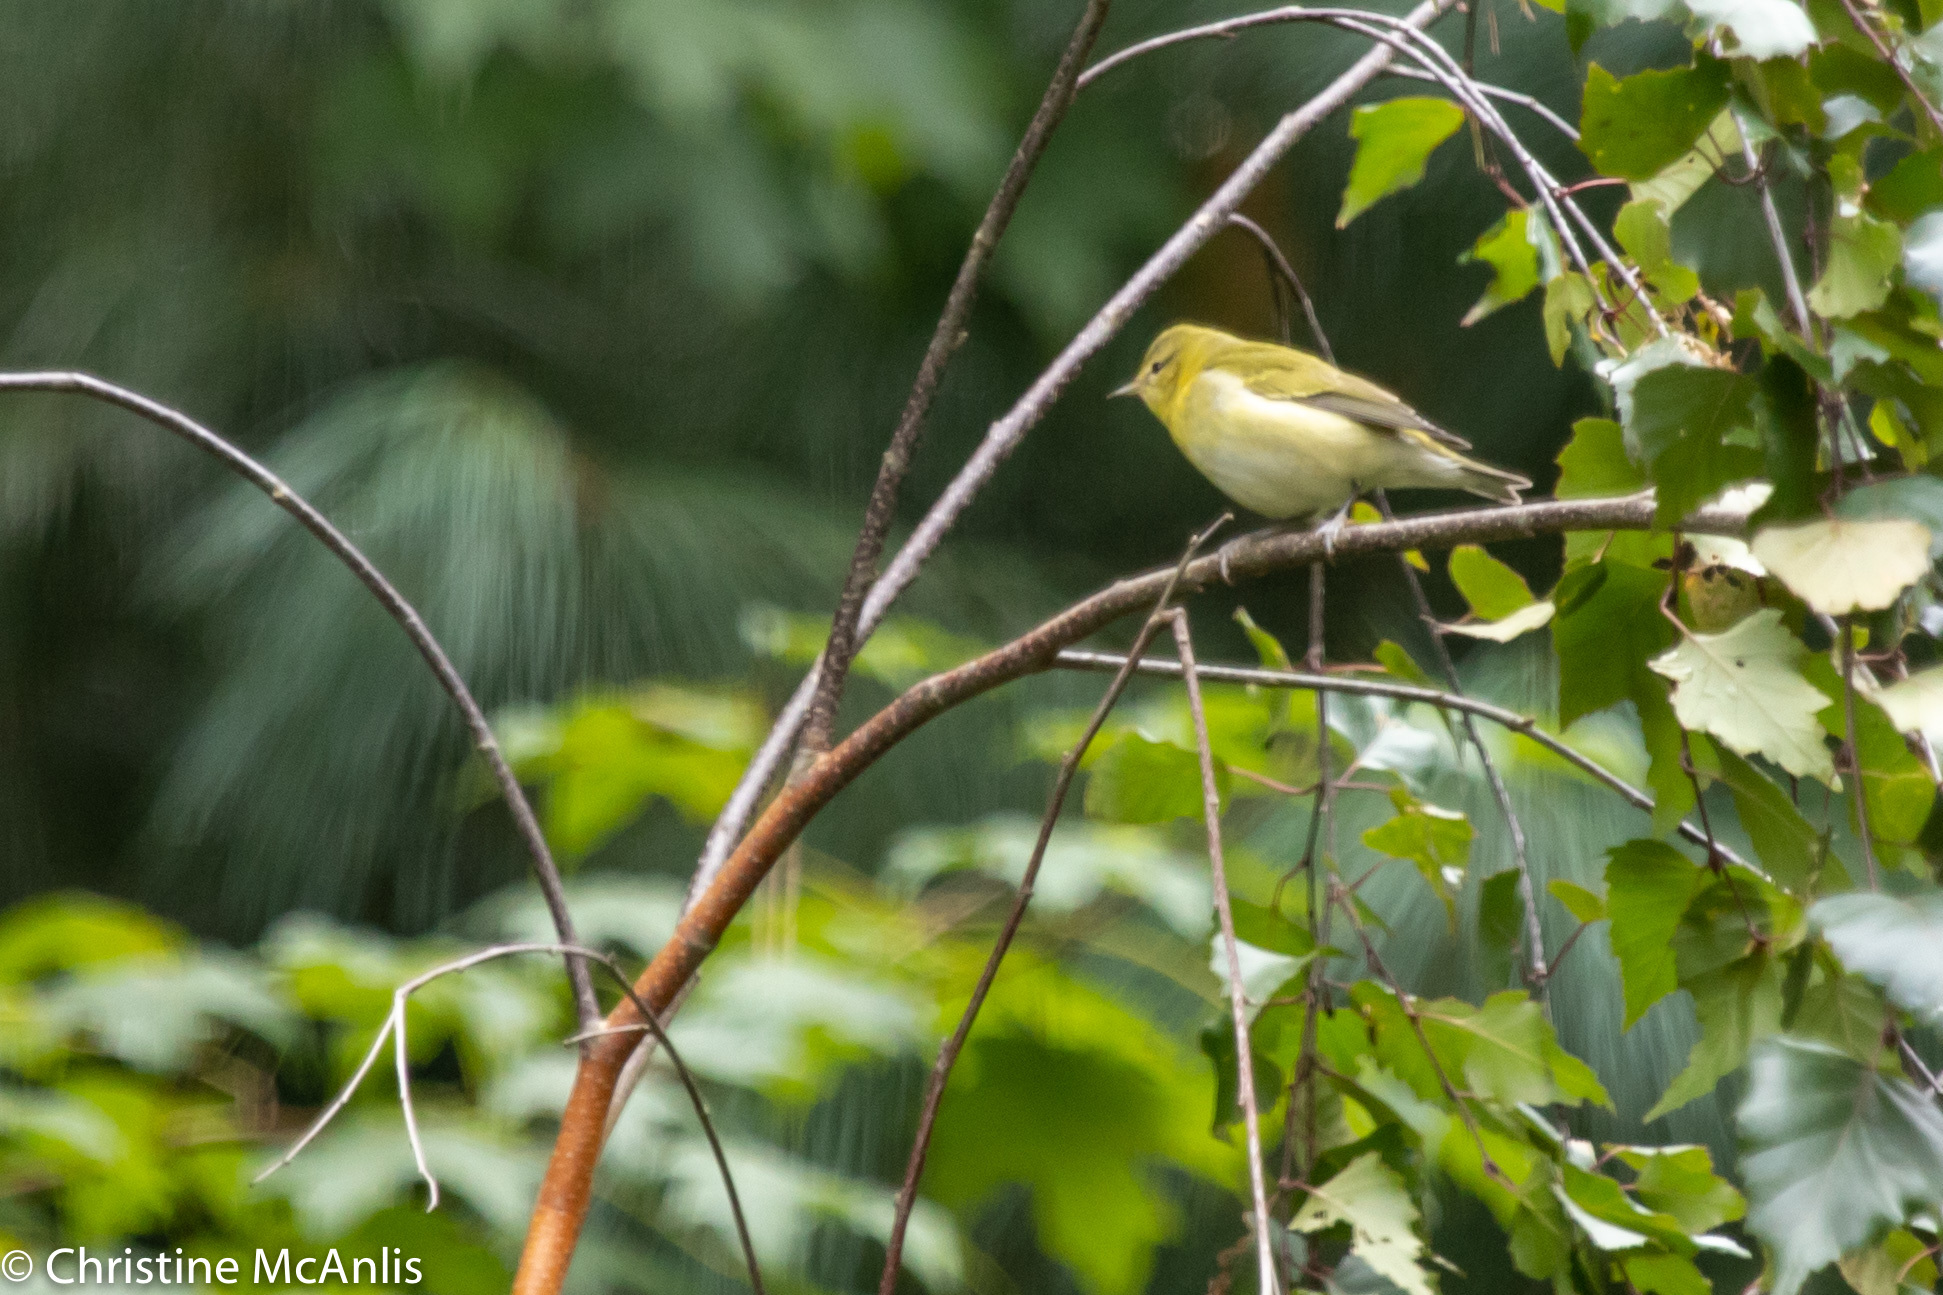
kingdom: Animalia
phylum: Chordata
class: Aves
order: Passeriformes
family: Parulidae
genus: Leiothlypis
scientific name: Leiothlypis peregrina
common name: Tennessee warbler
